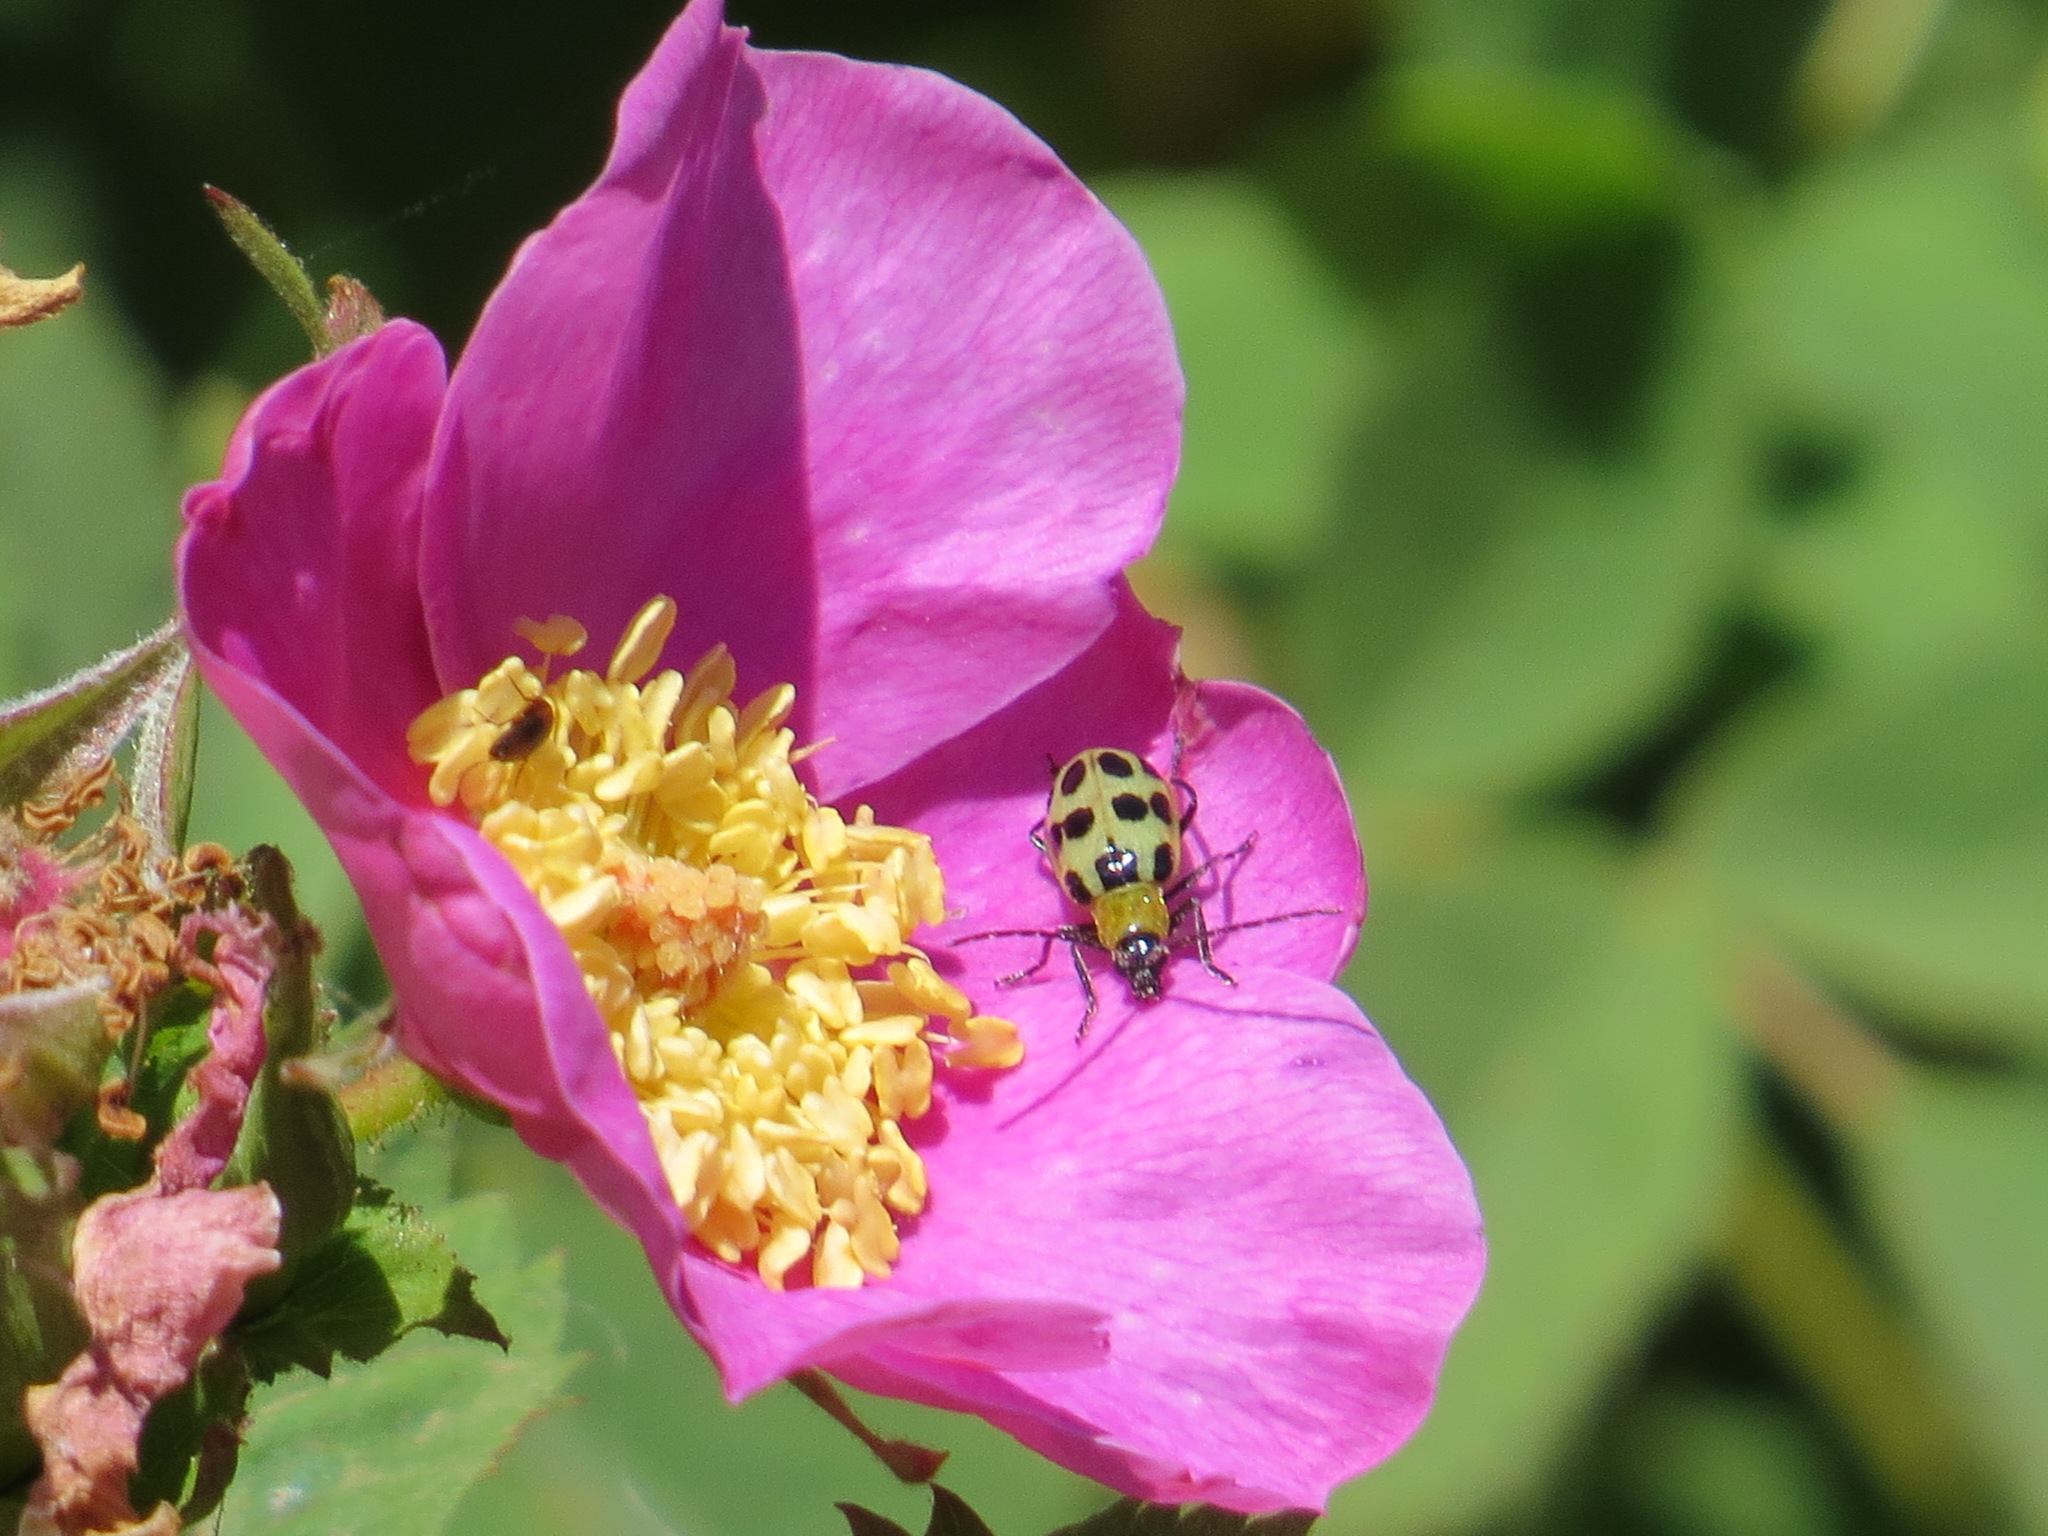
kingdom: Animalia
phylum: Arthropoda
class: Insecta
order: Coleoptera
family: Chrysomelidae
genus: Diabrotica
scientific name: Diabrotica undecimpunctata
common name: Spotted cucumber beetle
